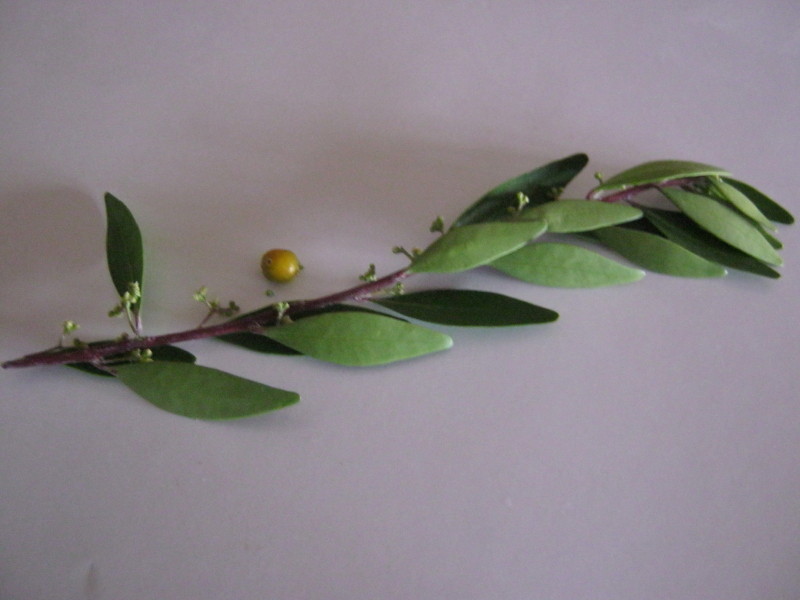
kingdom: Plantae
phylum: Tracheophyta
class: Magnoliopsida
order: Celastrales
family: Celastraceae
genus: Gymnosporia
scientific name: Gymnosporia laurina
